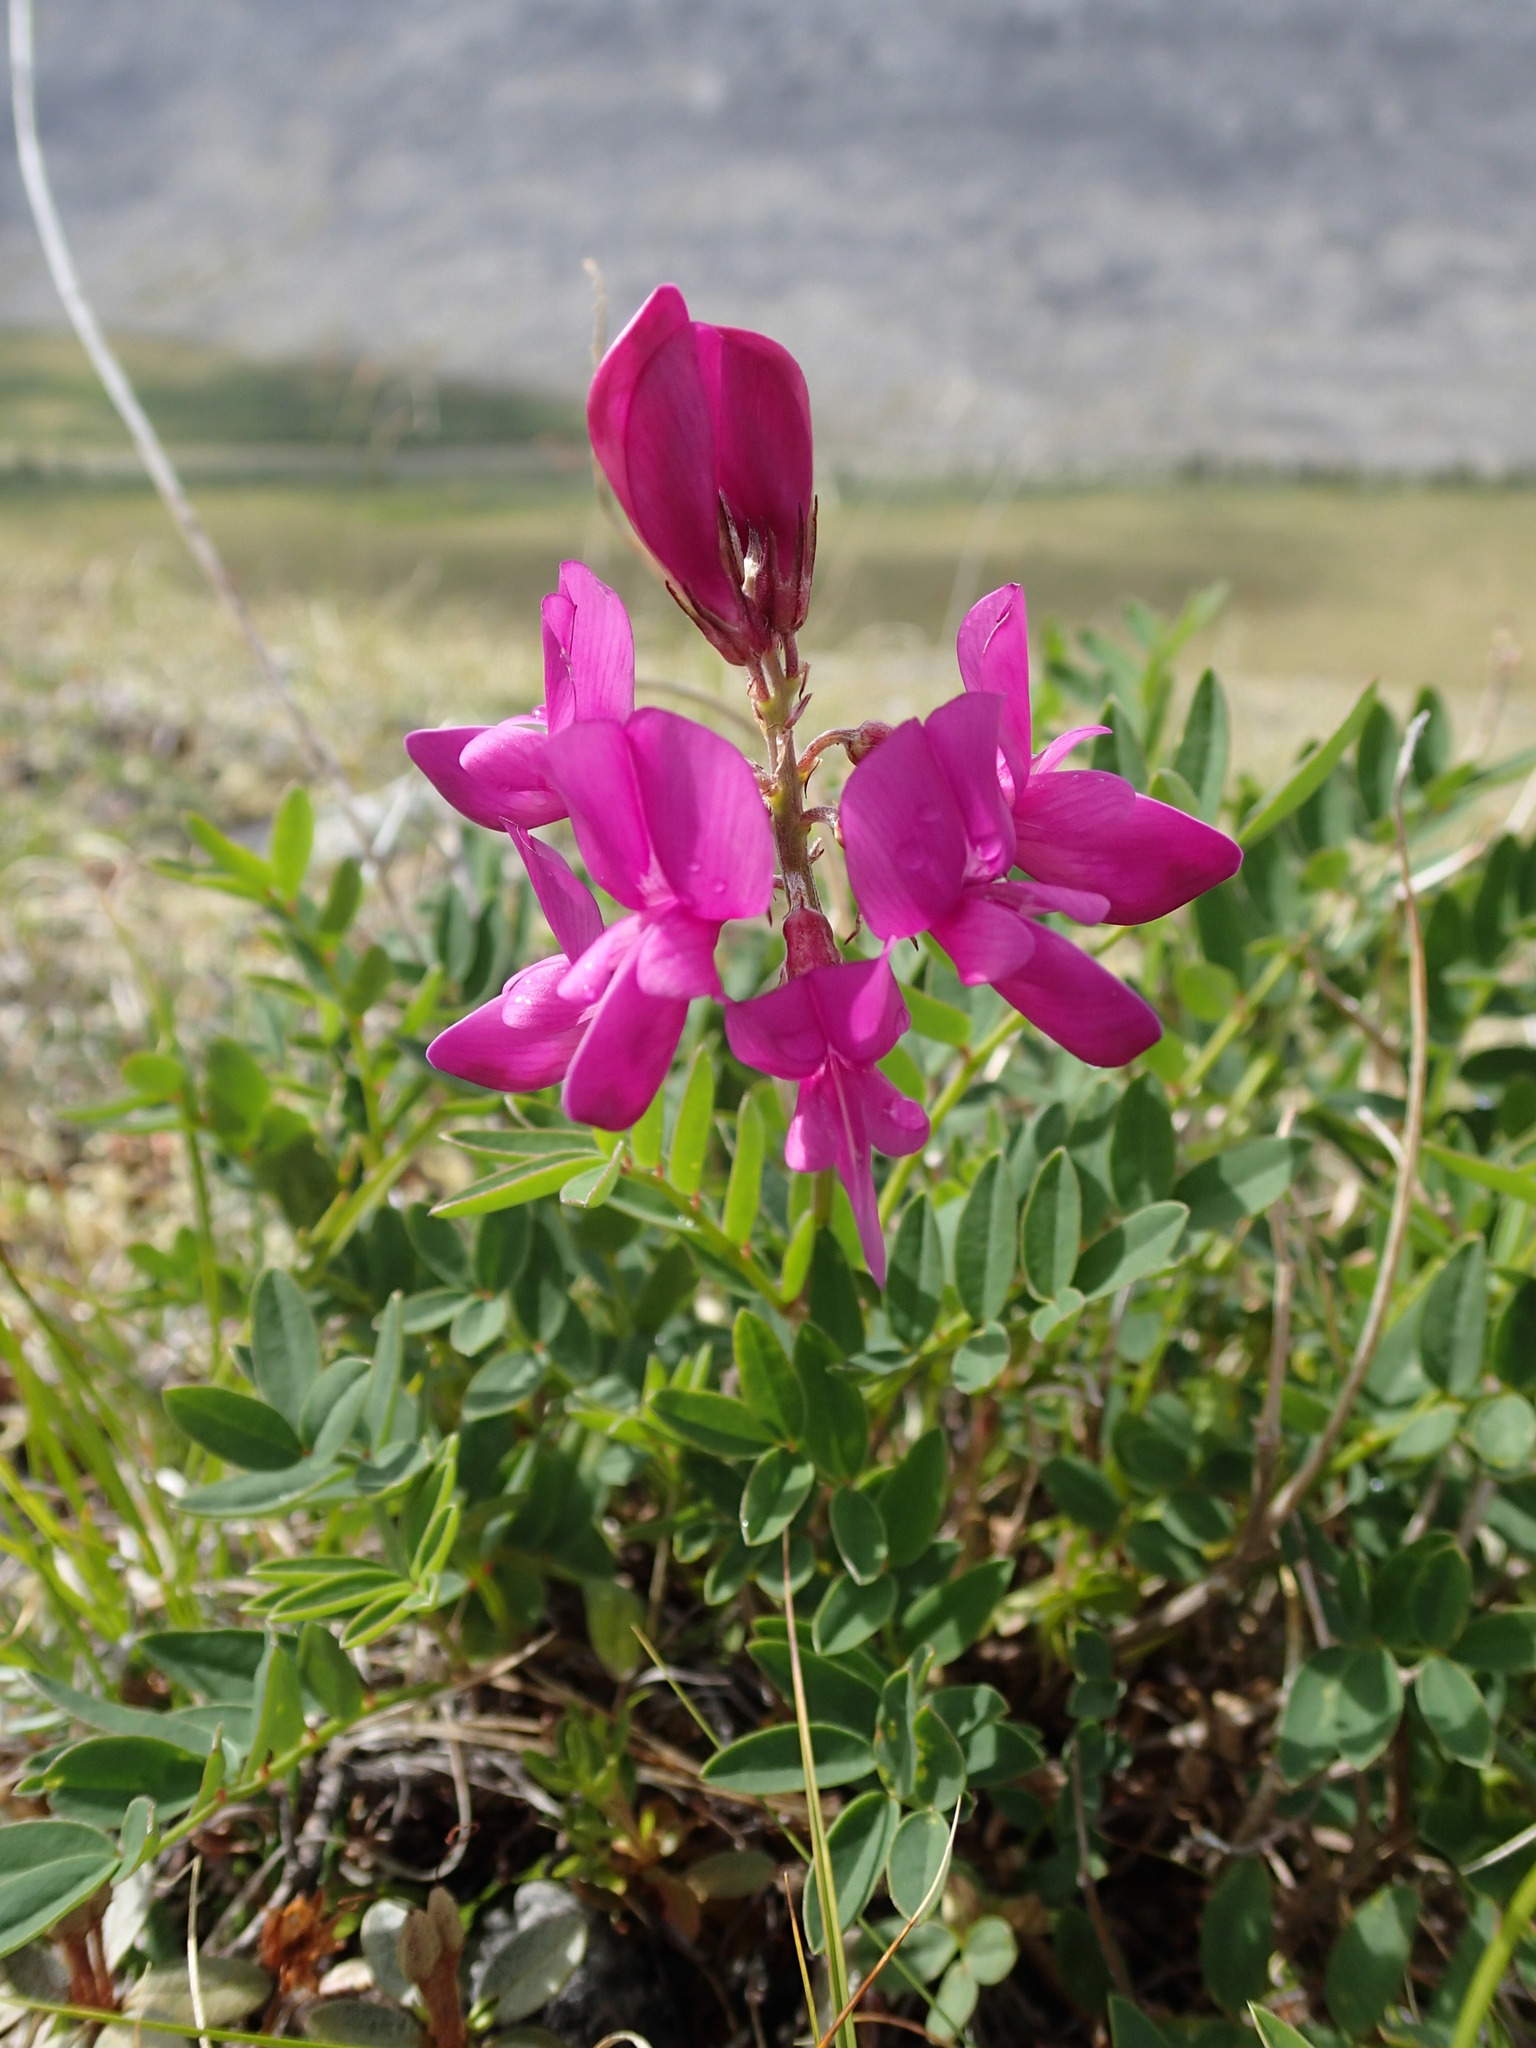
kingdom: Plantae
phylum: Tracheophyta
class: Magnoliopsida
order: Fabales
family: Fabaceae
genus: Hedysarum
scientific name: Hedysarum boreale
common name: Northern sweet-vetch
